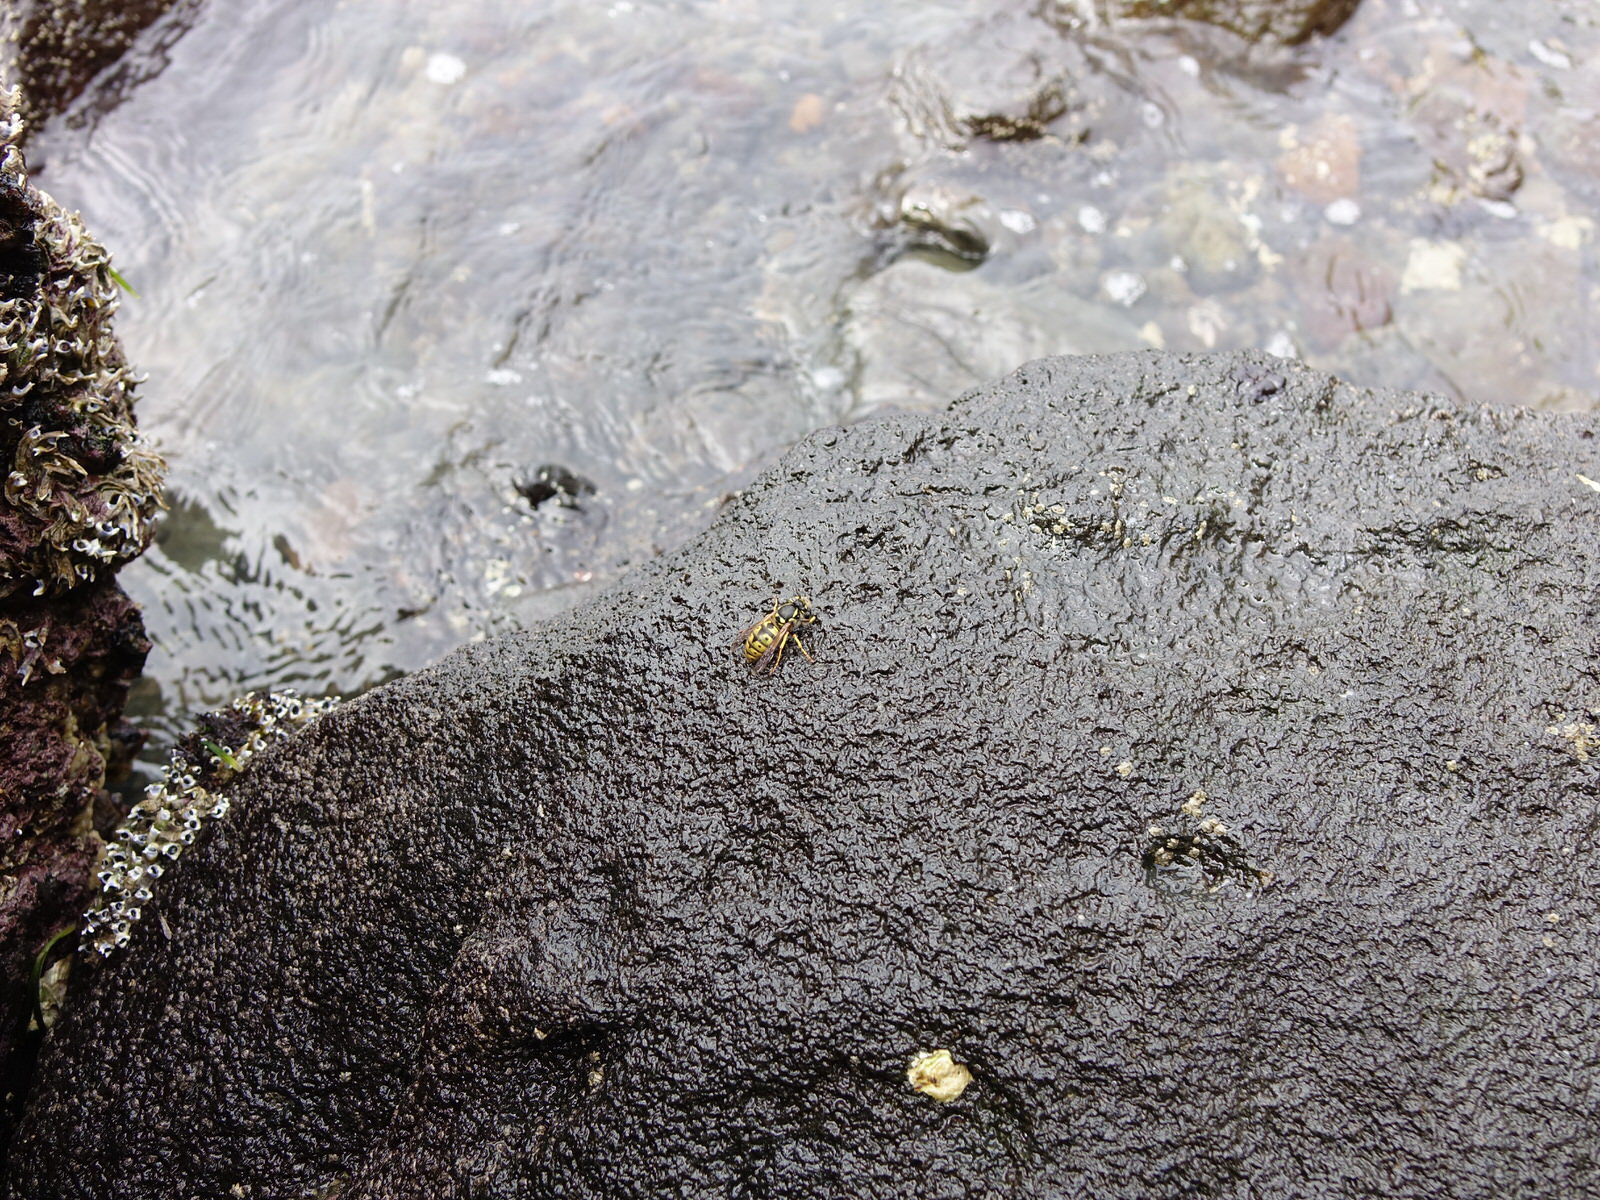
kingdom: Animalia
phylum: Arthropoda
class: Insecta
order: Hymenoptera
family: Vespidae
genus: Vespula
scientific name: Vespula germanica
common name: German wasp
